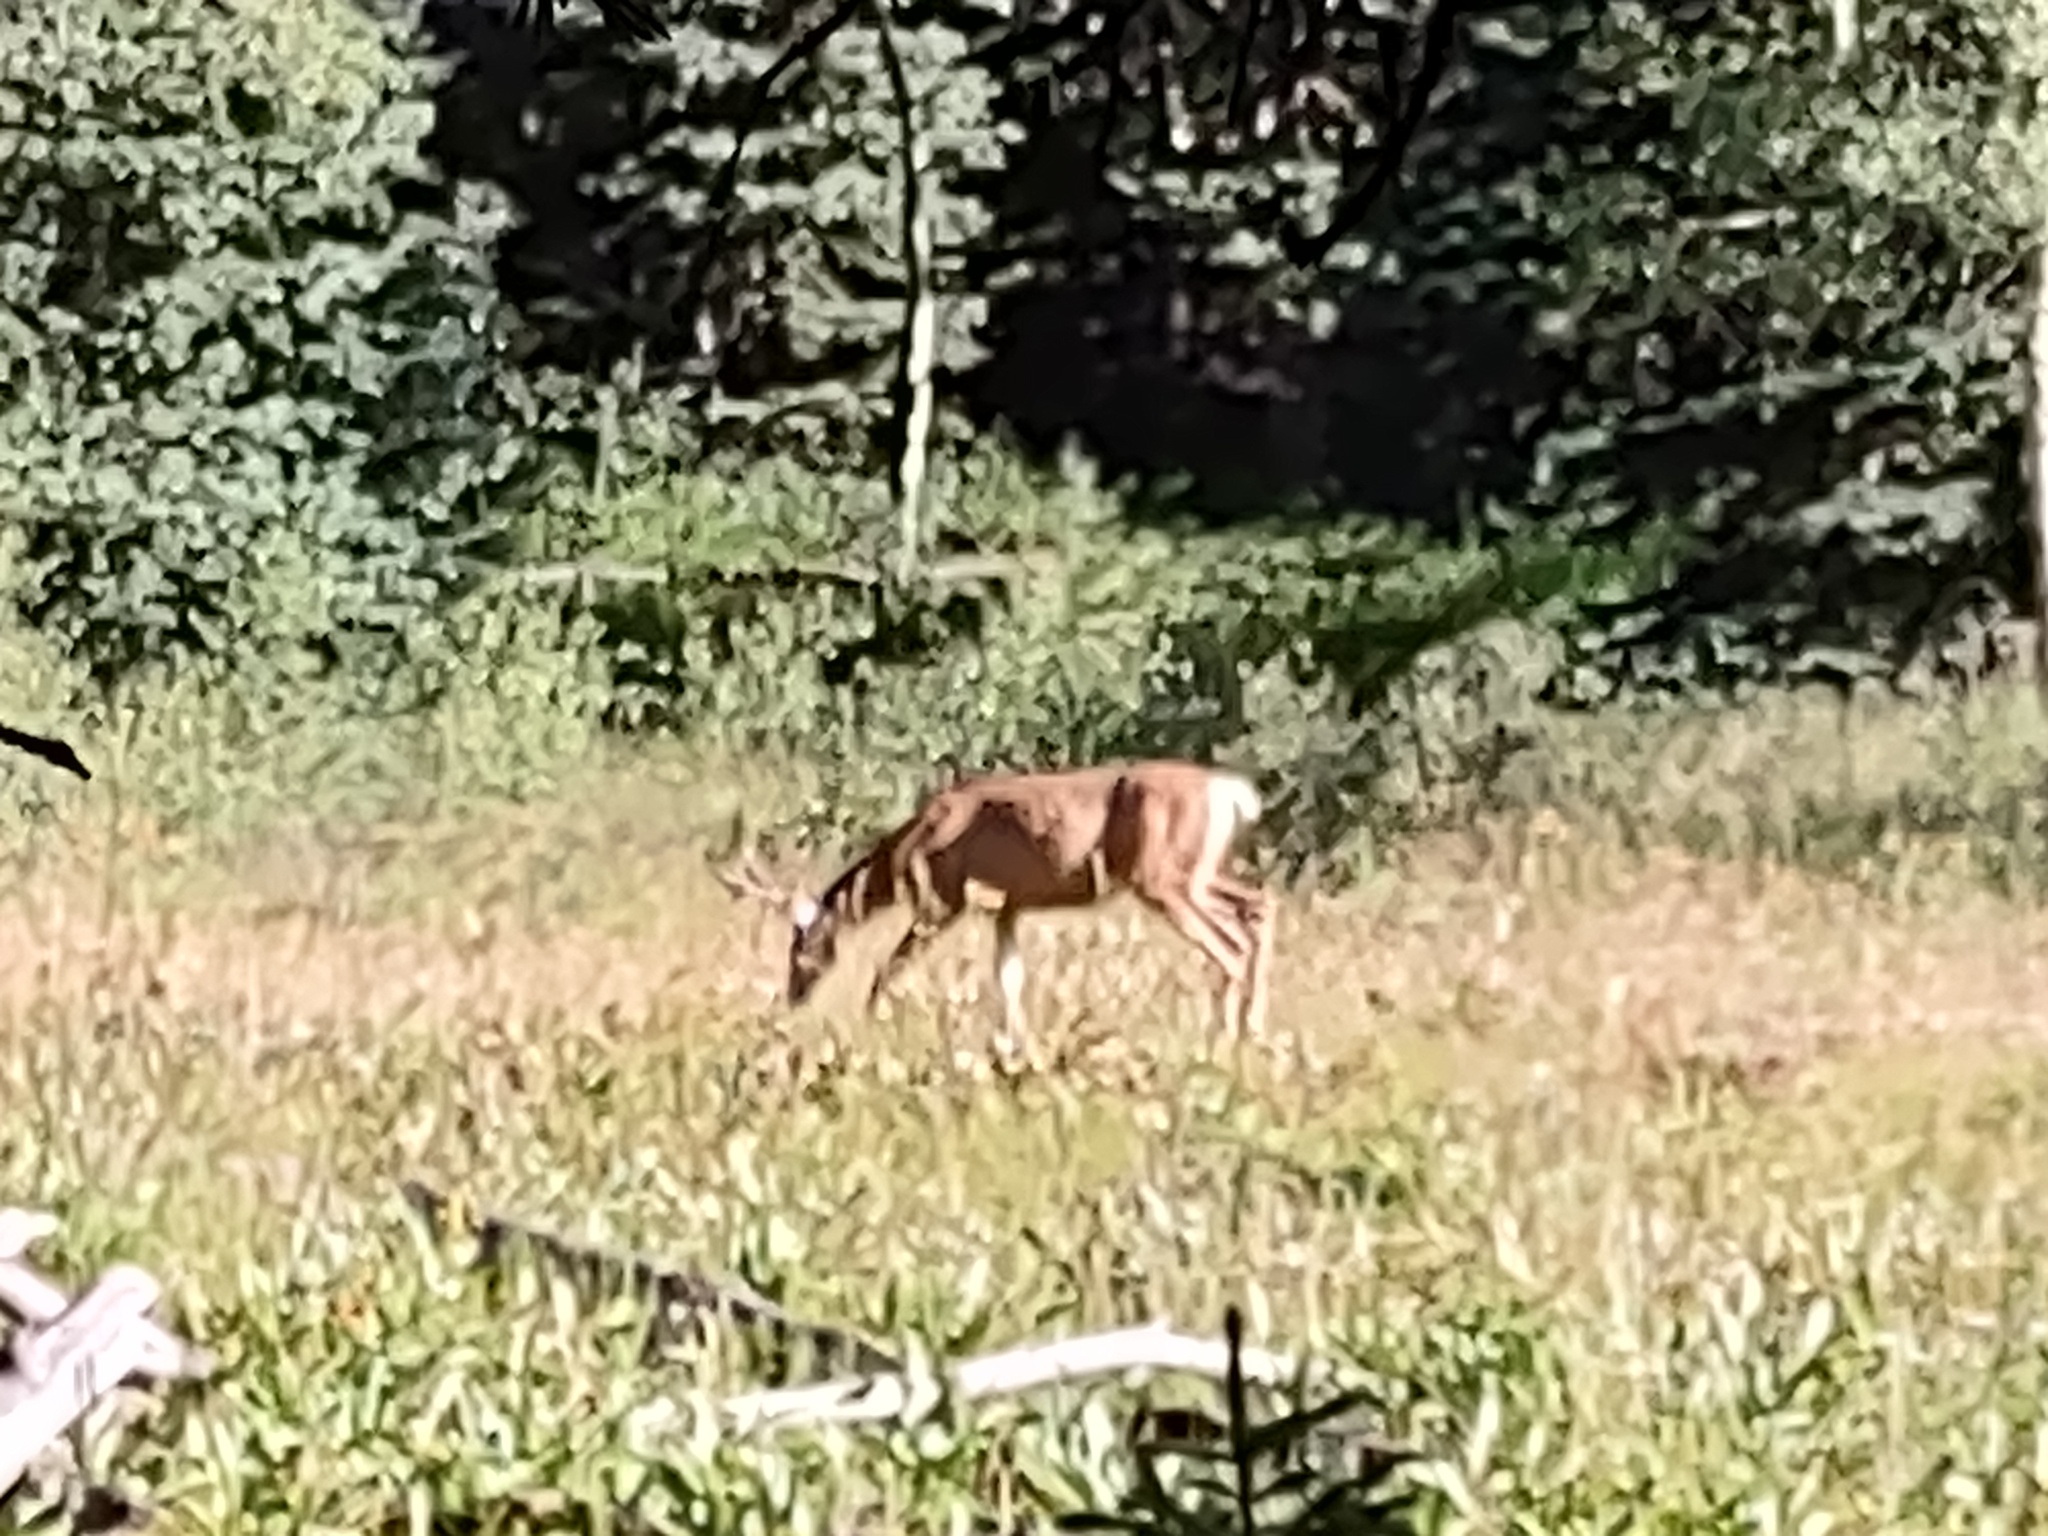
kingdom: Animalia
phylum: Chordata
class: Mammalia
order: Artiodactyla
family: Cervidae
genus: Odocoileus
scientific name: Odocoileus hemionus
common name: Mule deer
